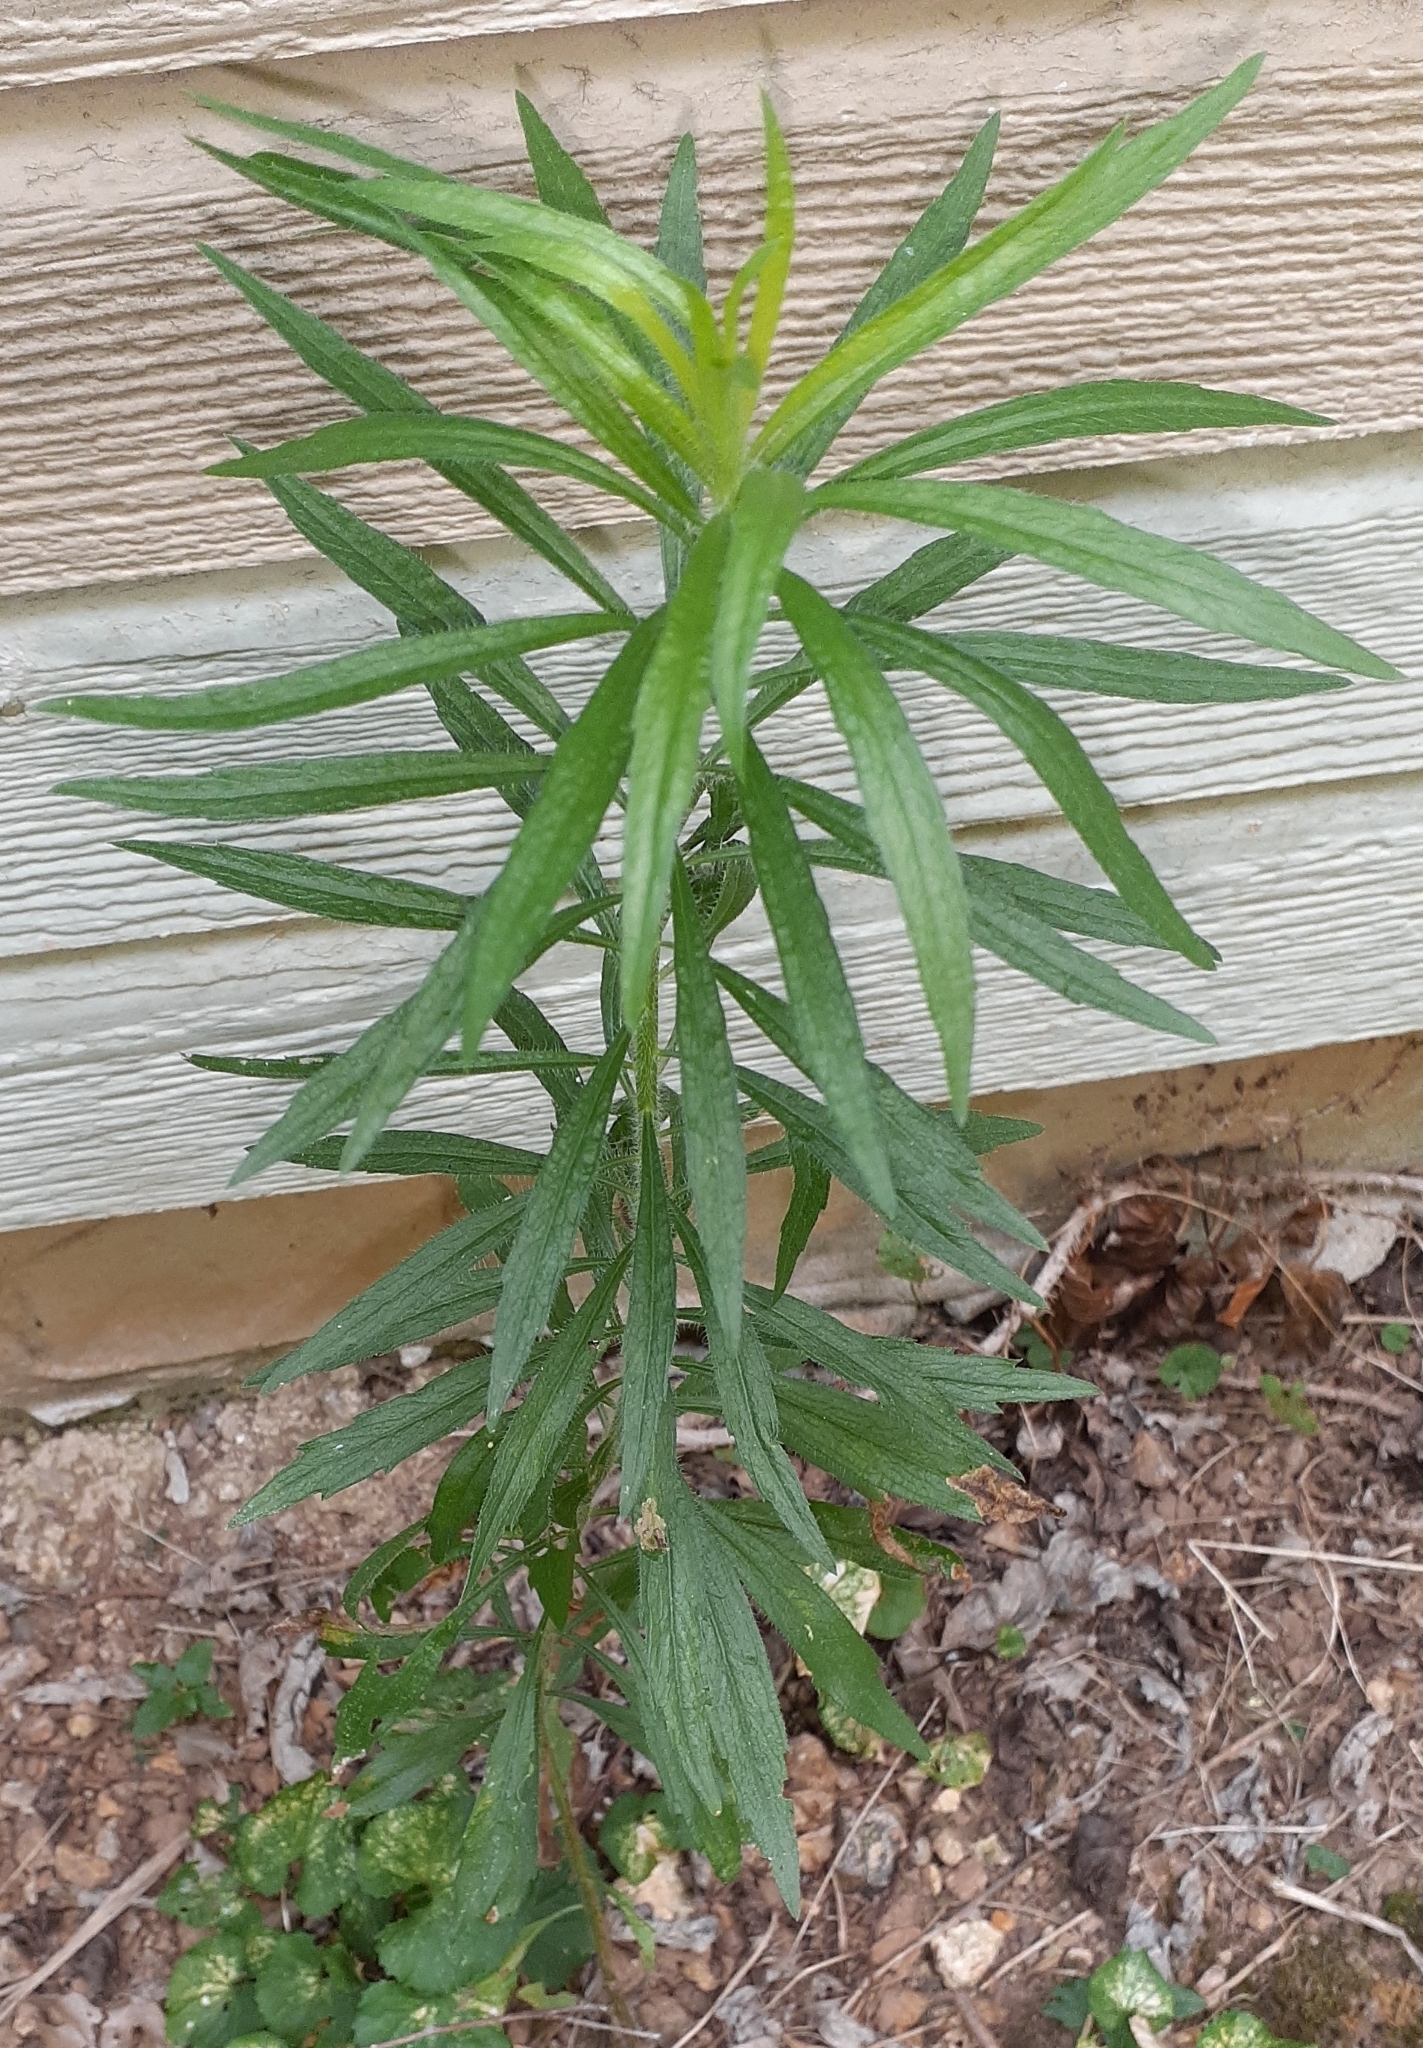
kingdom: Plantae
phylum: Tracheophyta
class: Magnoliopsida
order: Asterales
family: Asteraceae
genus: Erigeron
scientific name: Erigeron canadensis
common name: Canadian fleabane
